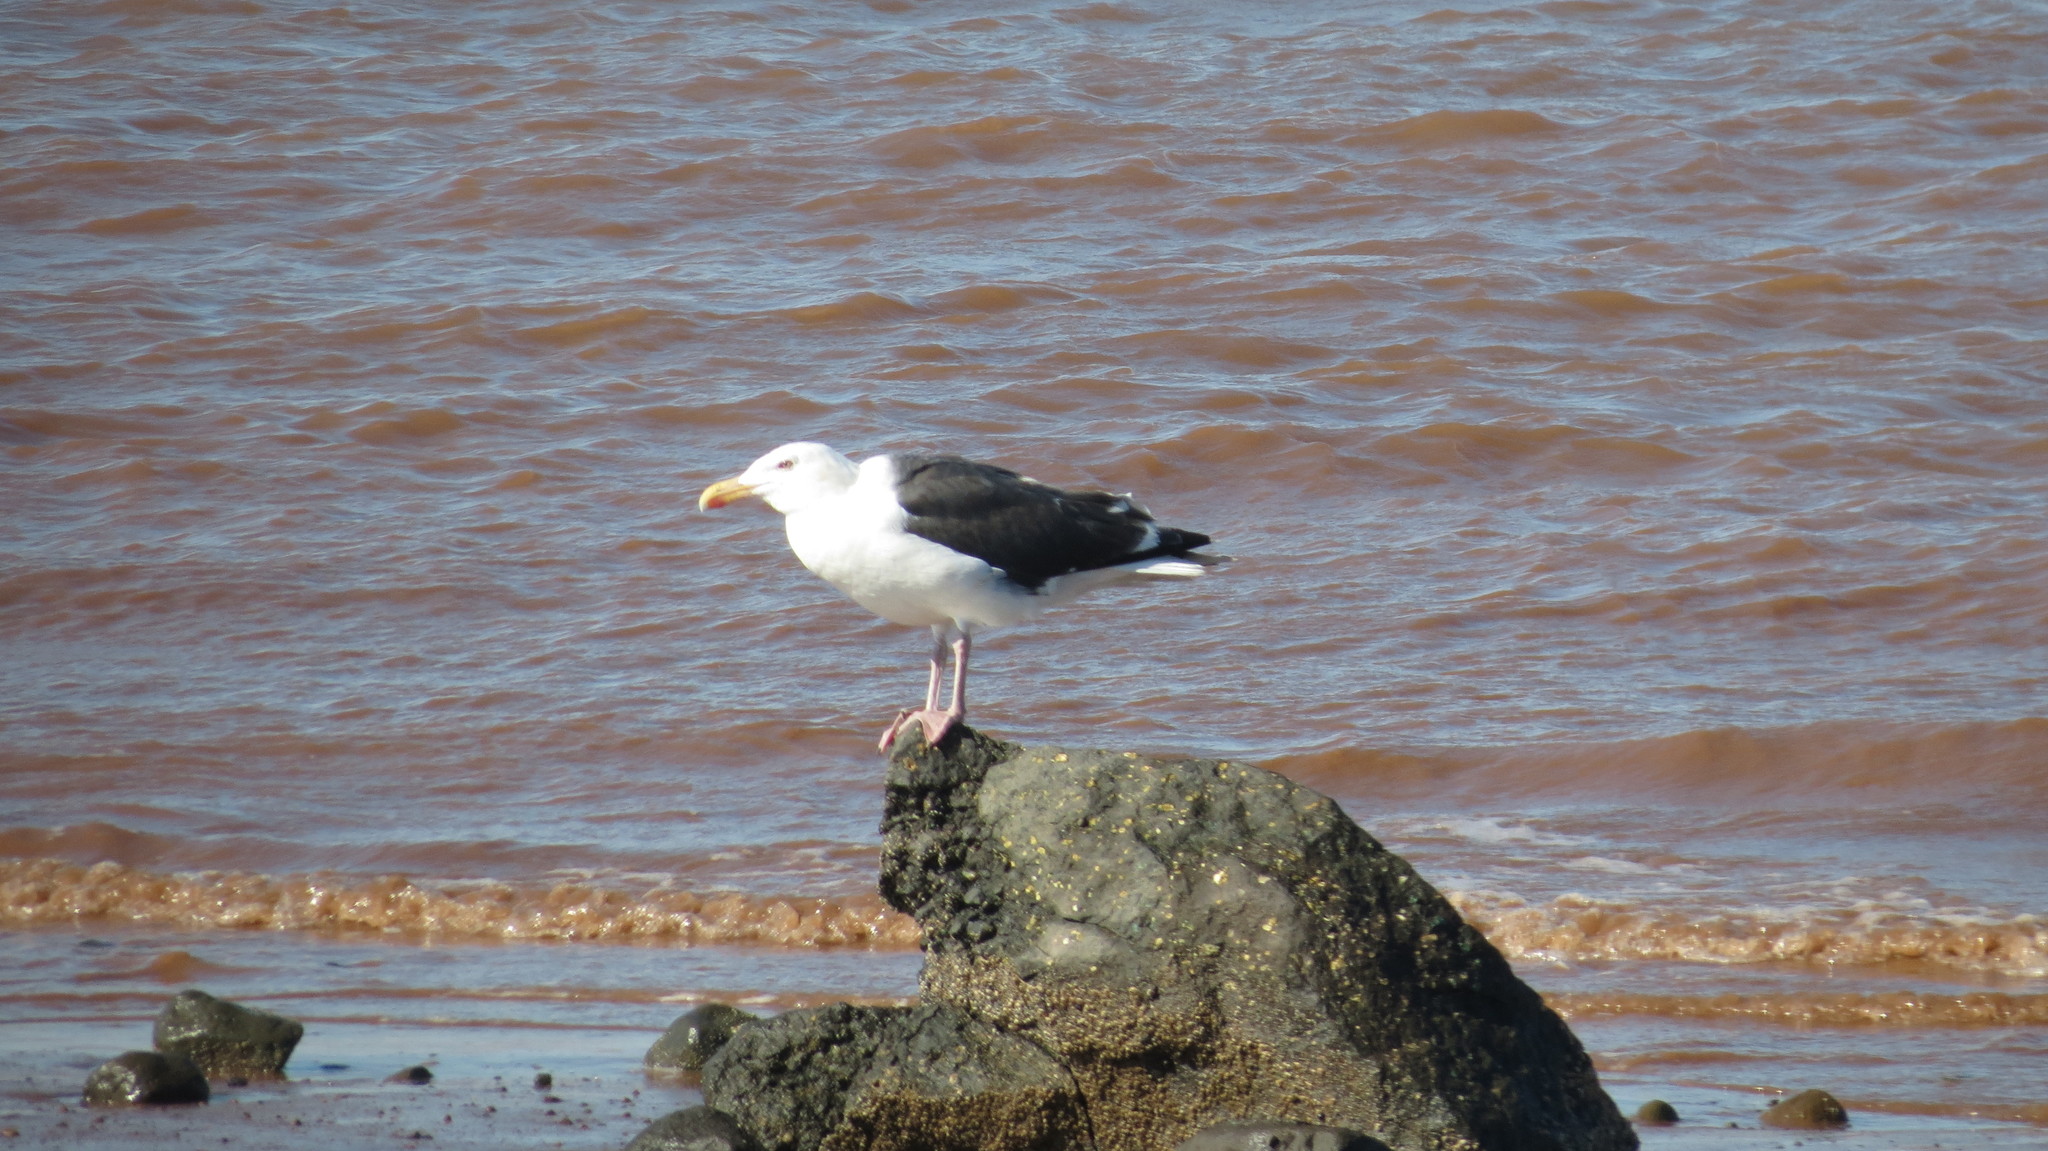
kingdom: Animalia
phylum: Chordata
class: Aves
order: Charadriiformes
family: Laridae
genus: Larus
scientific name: Larus marinus
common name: Great black-backed gull
